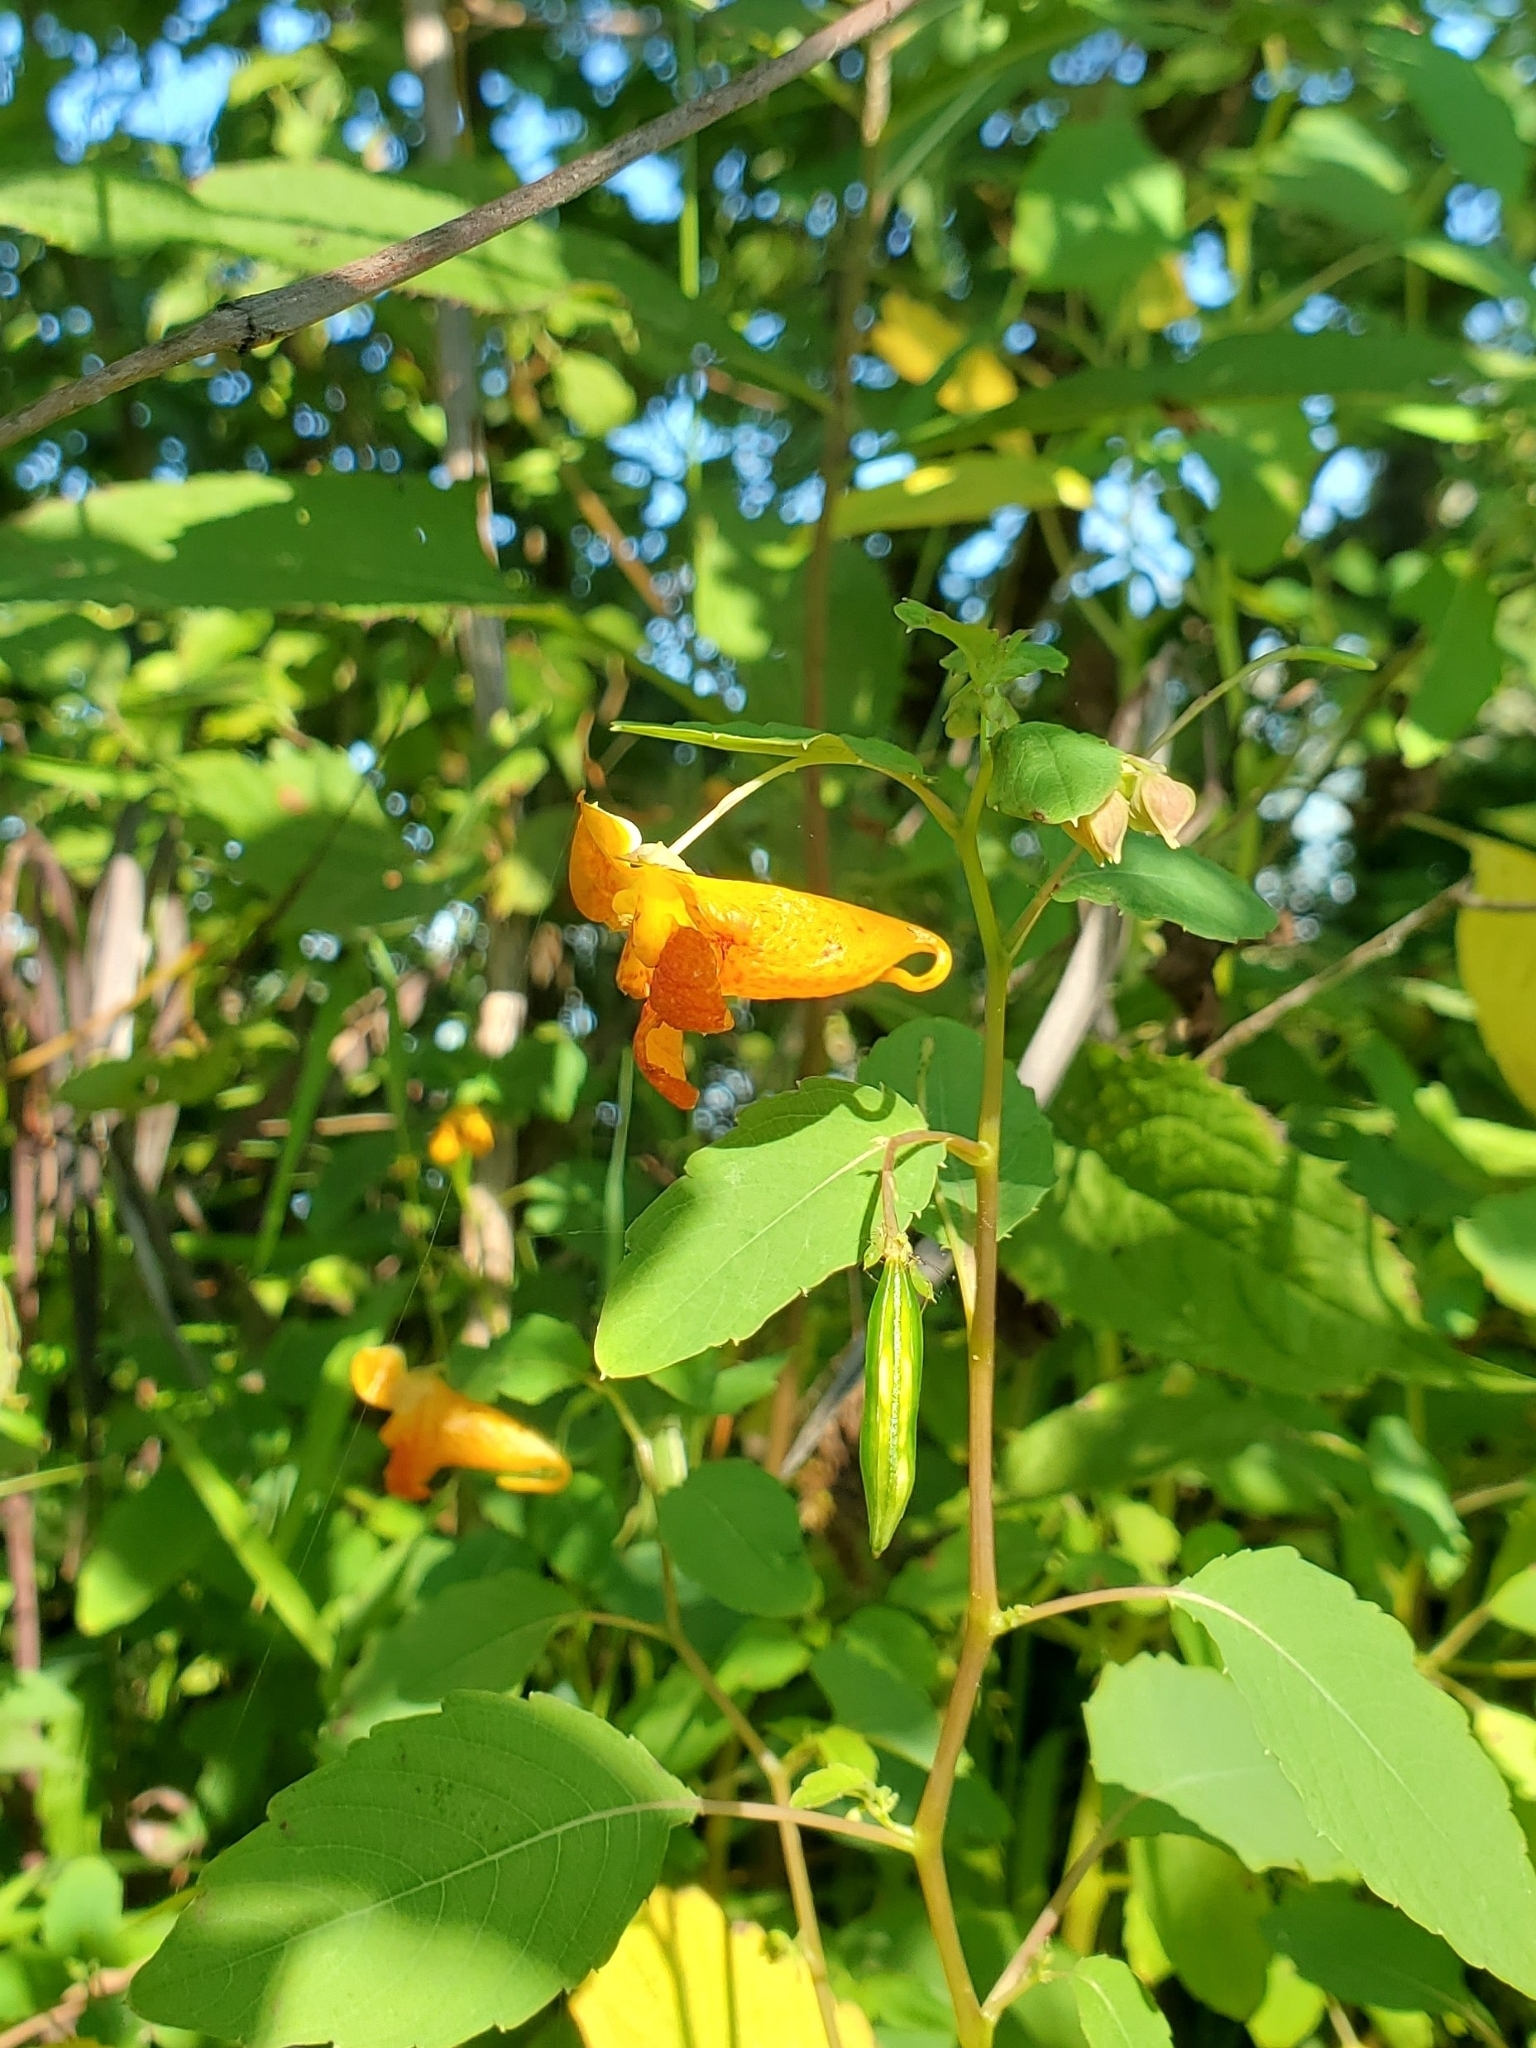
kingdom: Plantae
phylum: Tracheophyta
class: Magnoliopsida
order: Ericales
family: Balsaminaceae
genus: Impatiens
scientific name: Impatiens capensis
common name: Orange balsam
